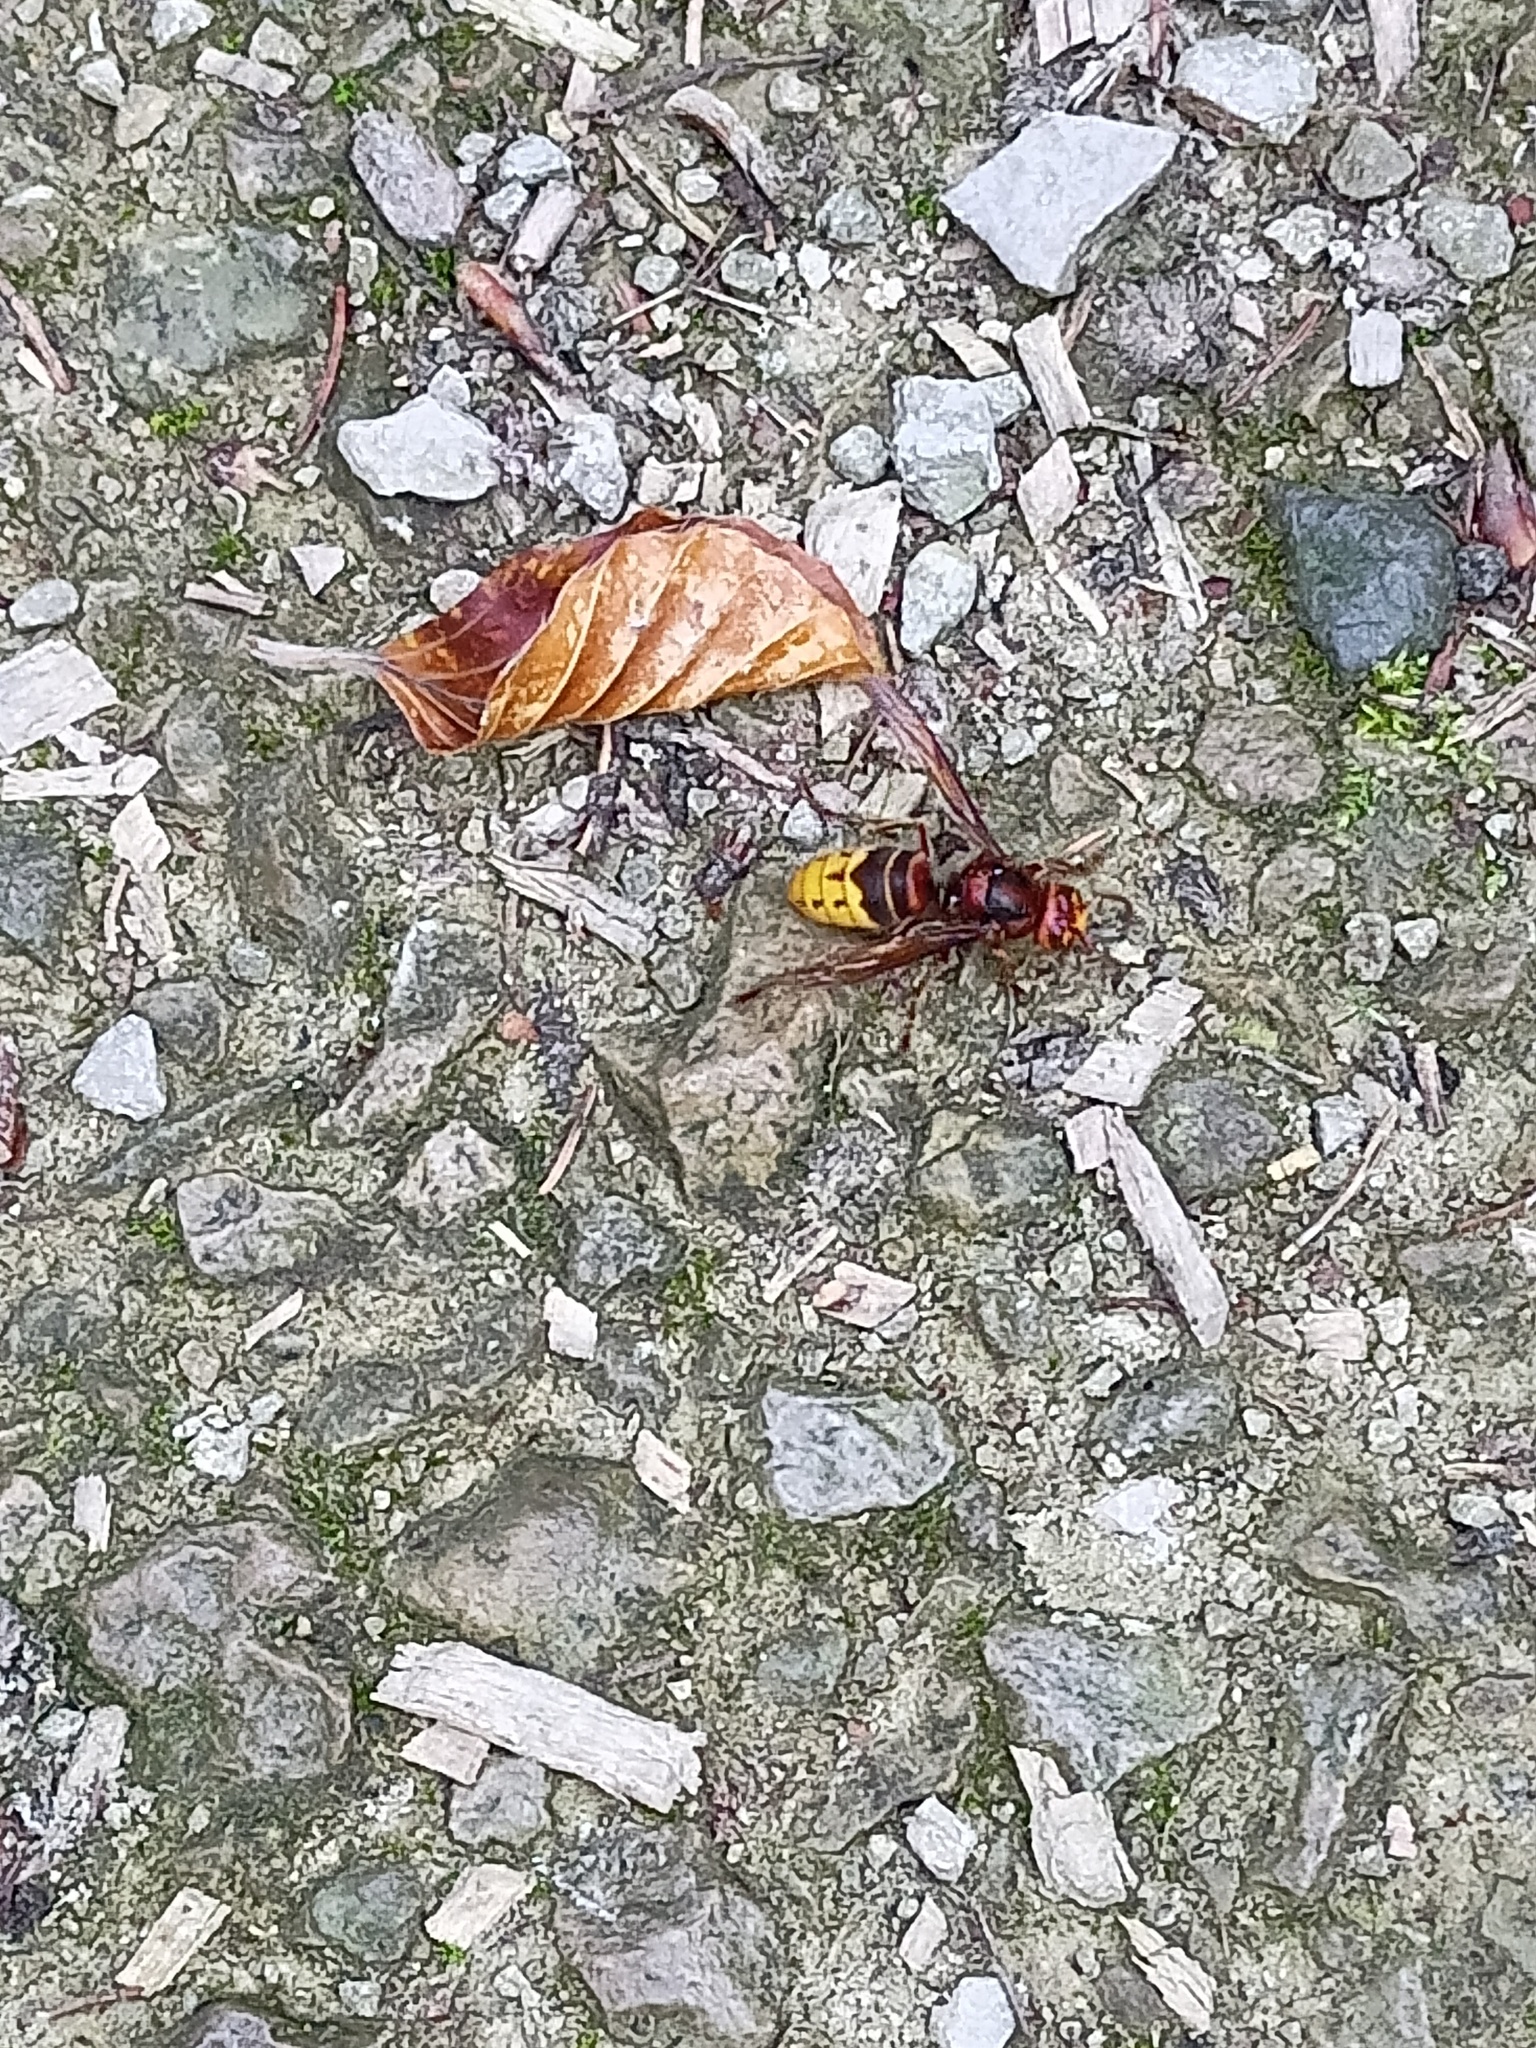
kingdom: Animalia
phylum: Arthropoda
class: Insecta
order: Hymenoptera
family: Vespidae
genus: Vespa
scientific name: Vespa crabro
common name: Hornet
